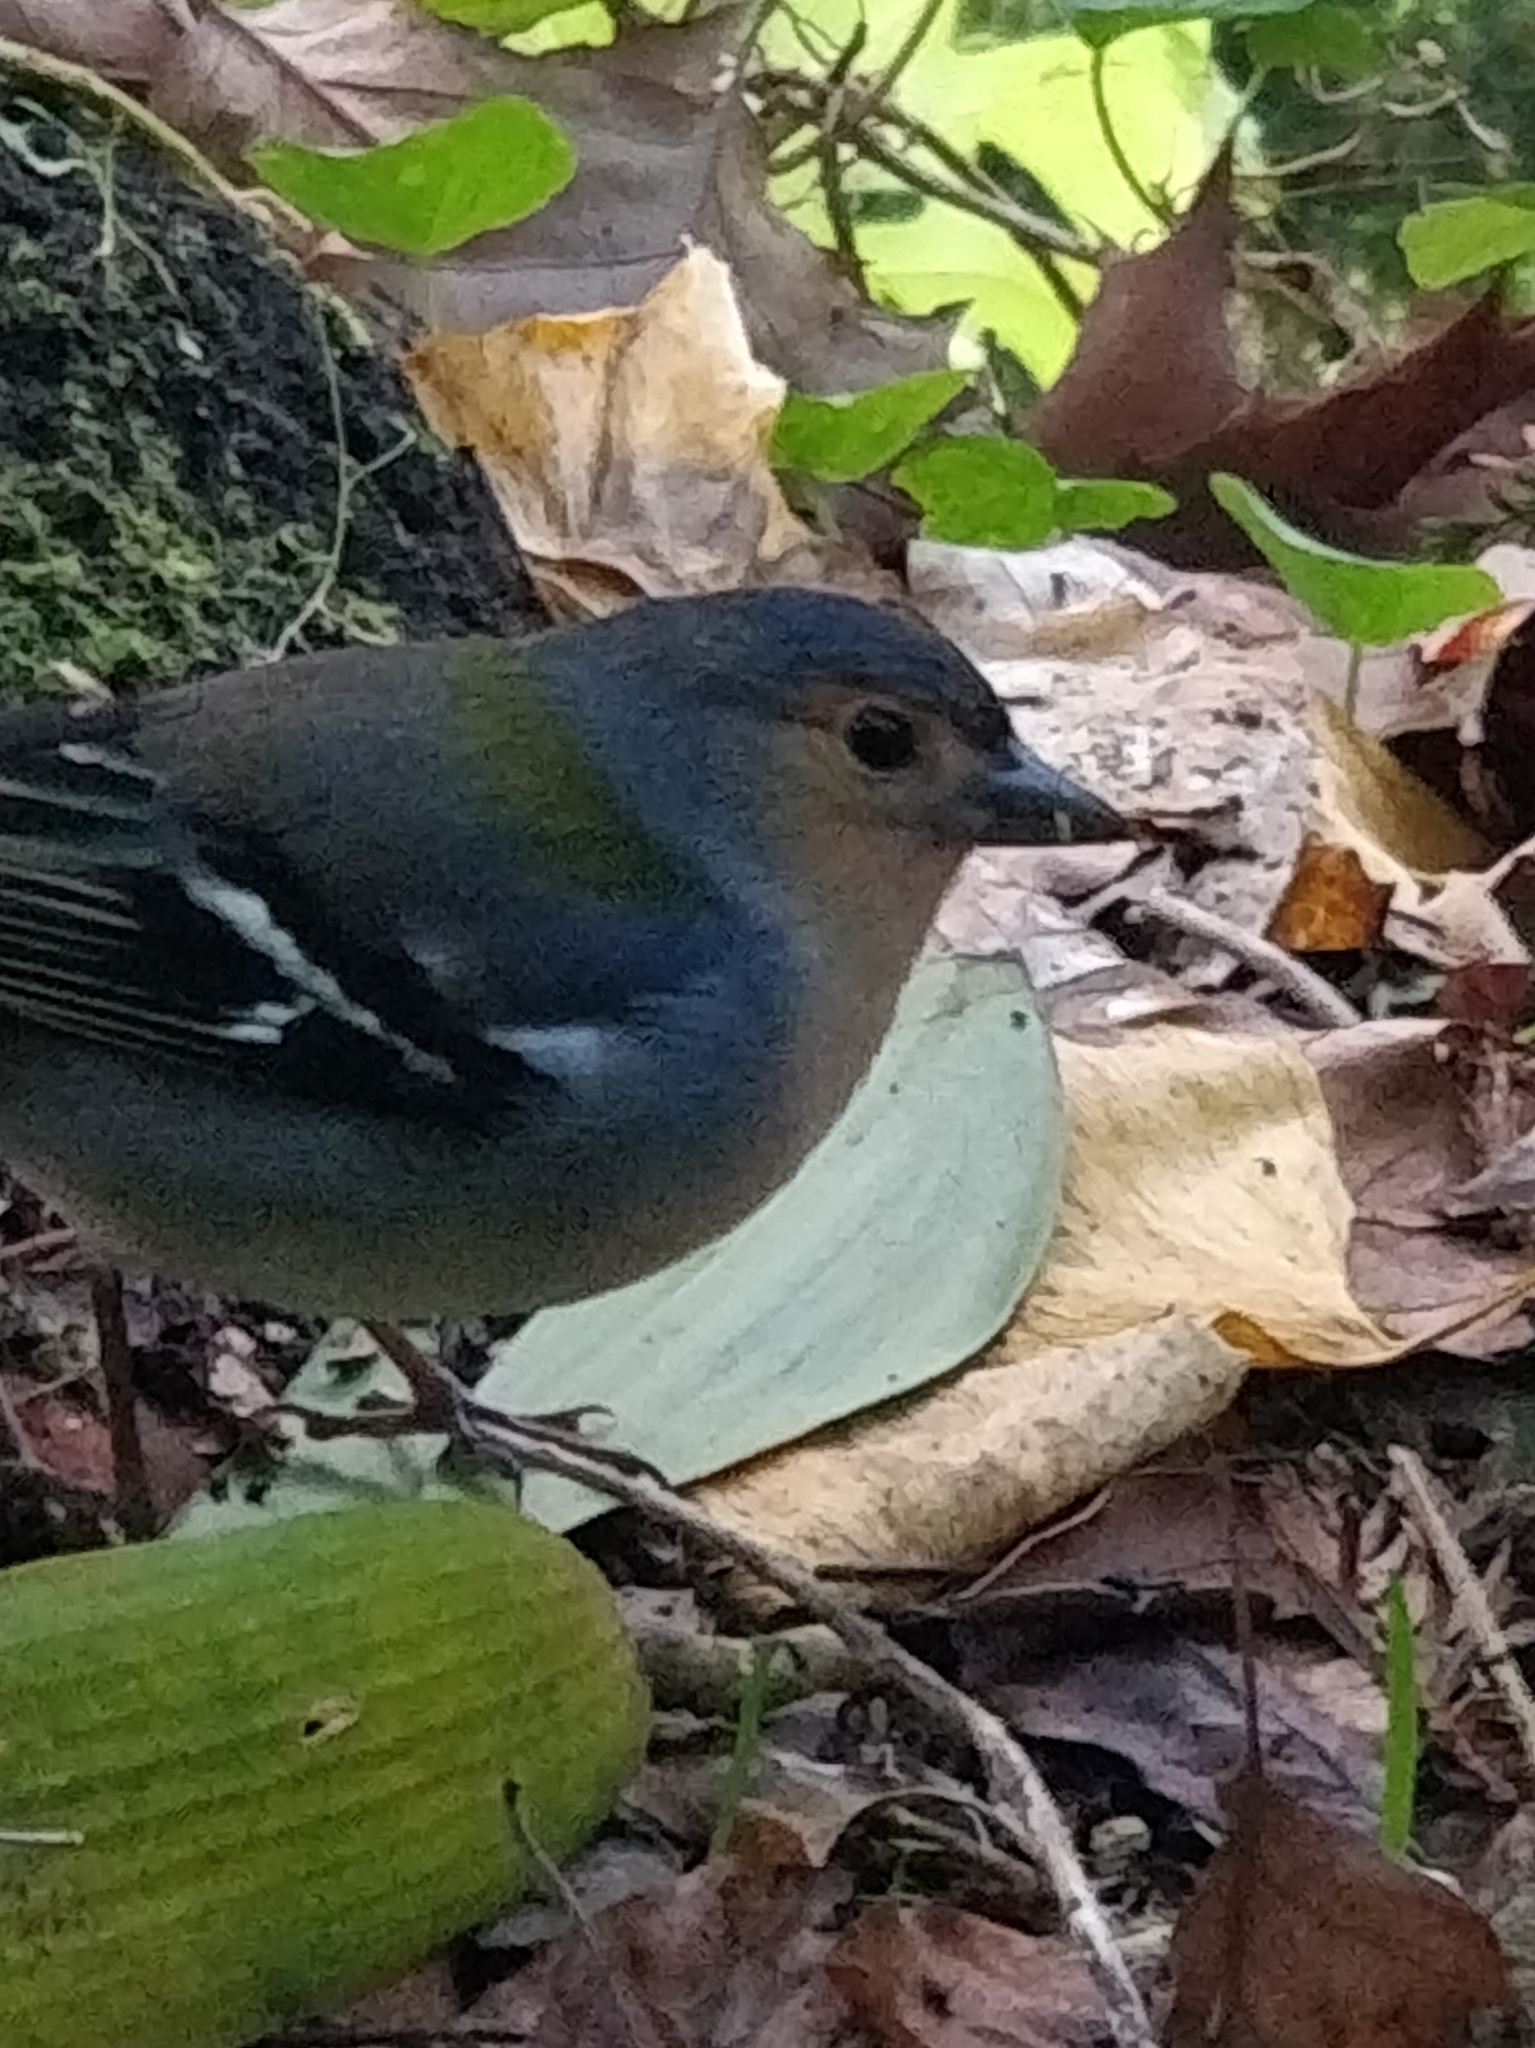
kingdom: Animalia
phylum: Chordata
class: Aves
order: Passeriformes
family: Fringillidae
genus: Fringilla
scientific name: Fringilla maderensis
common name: Madeira chaffinch
